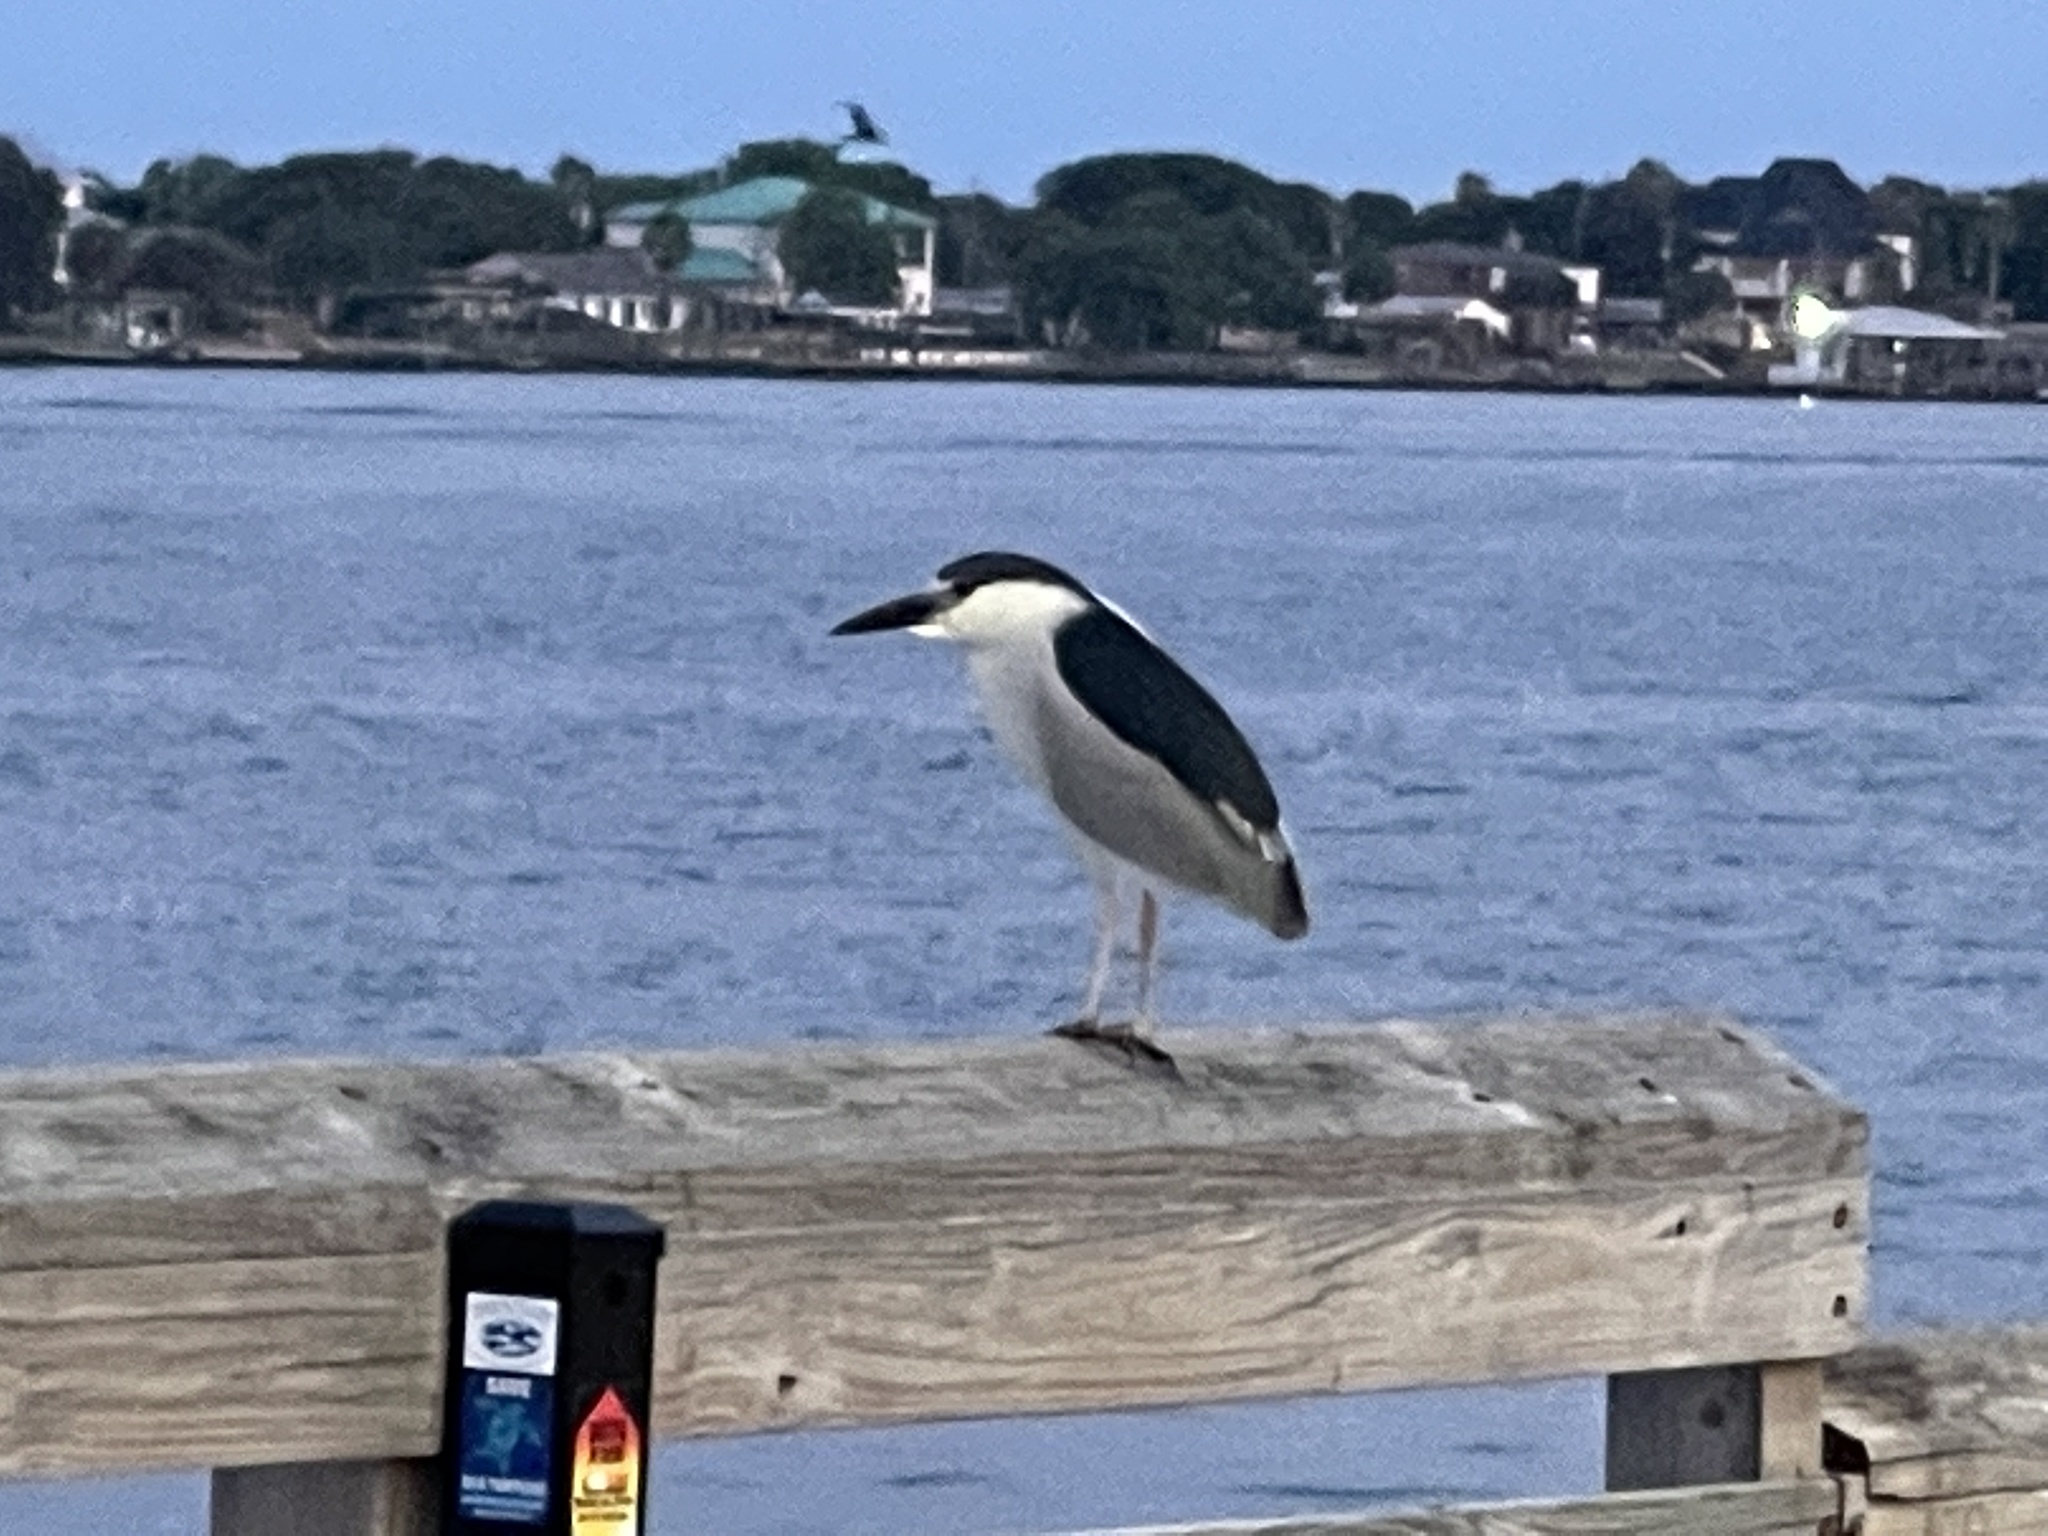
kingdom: Animalia
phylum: Chordata
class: Aves
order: Pelecaniformes
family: Ardeidae
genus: Nycticorax
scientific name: Nycticorax nycticorax
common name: Black-crowned night heron
